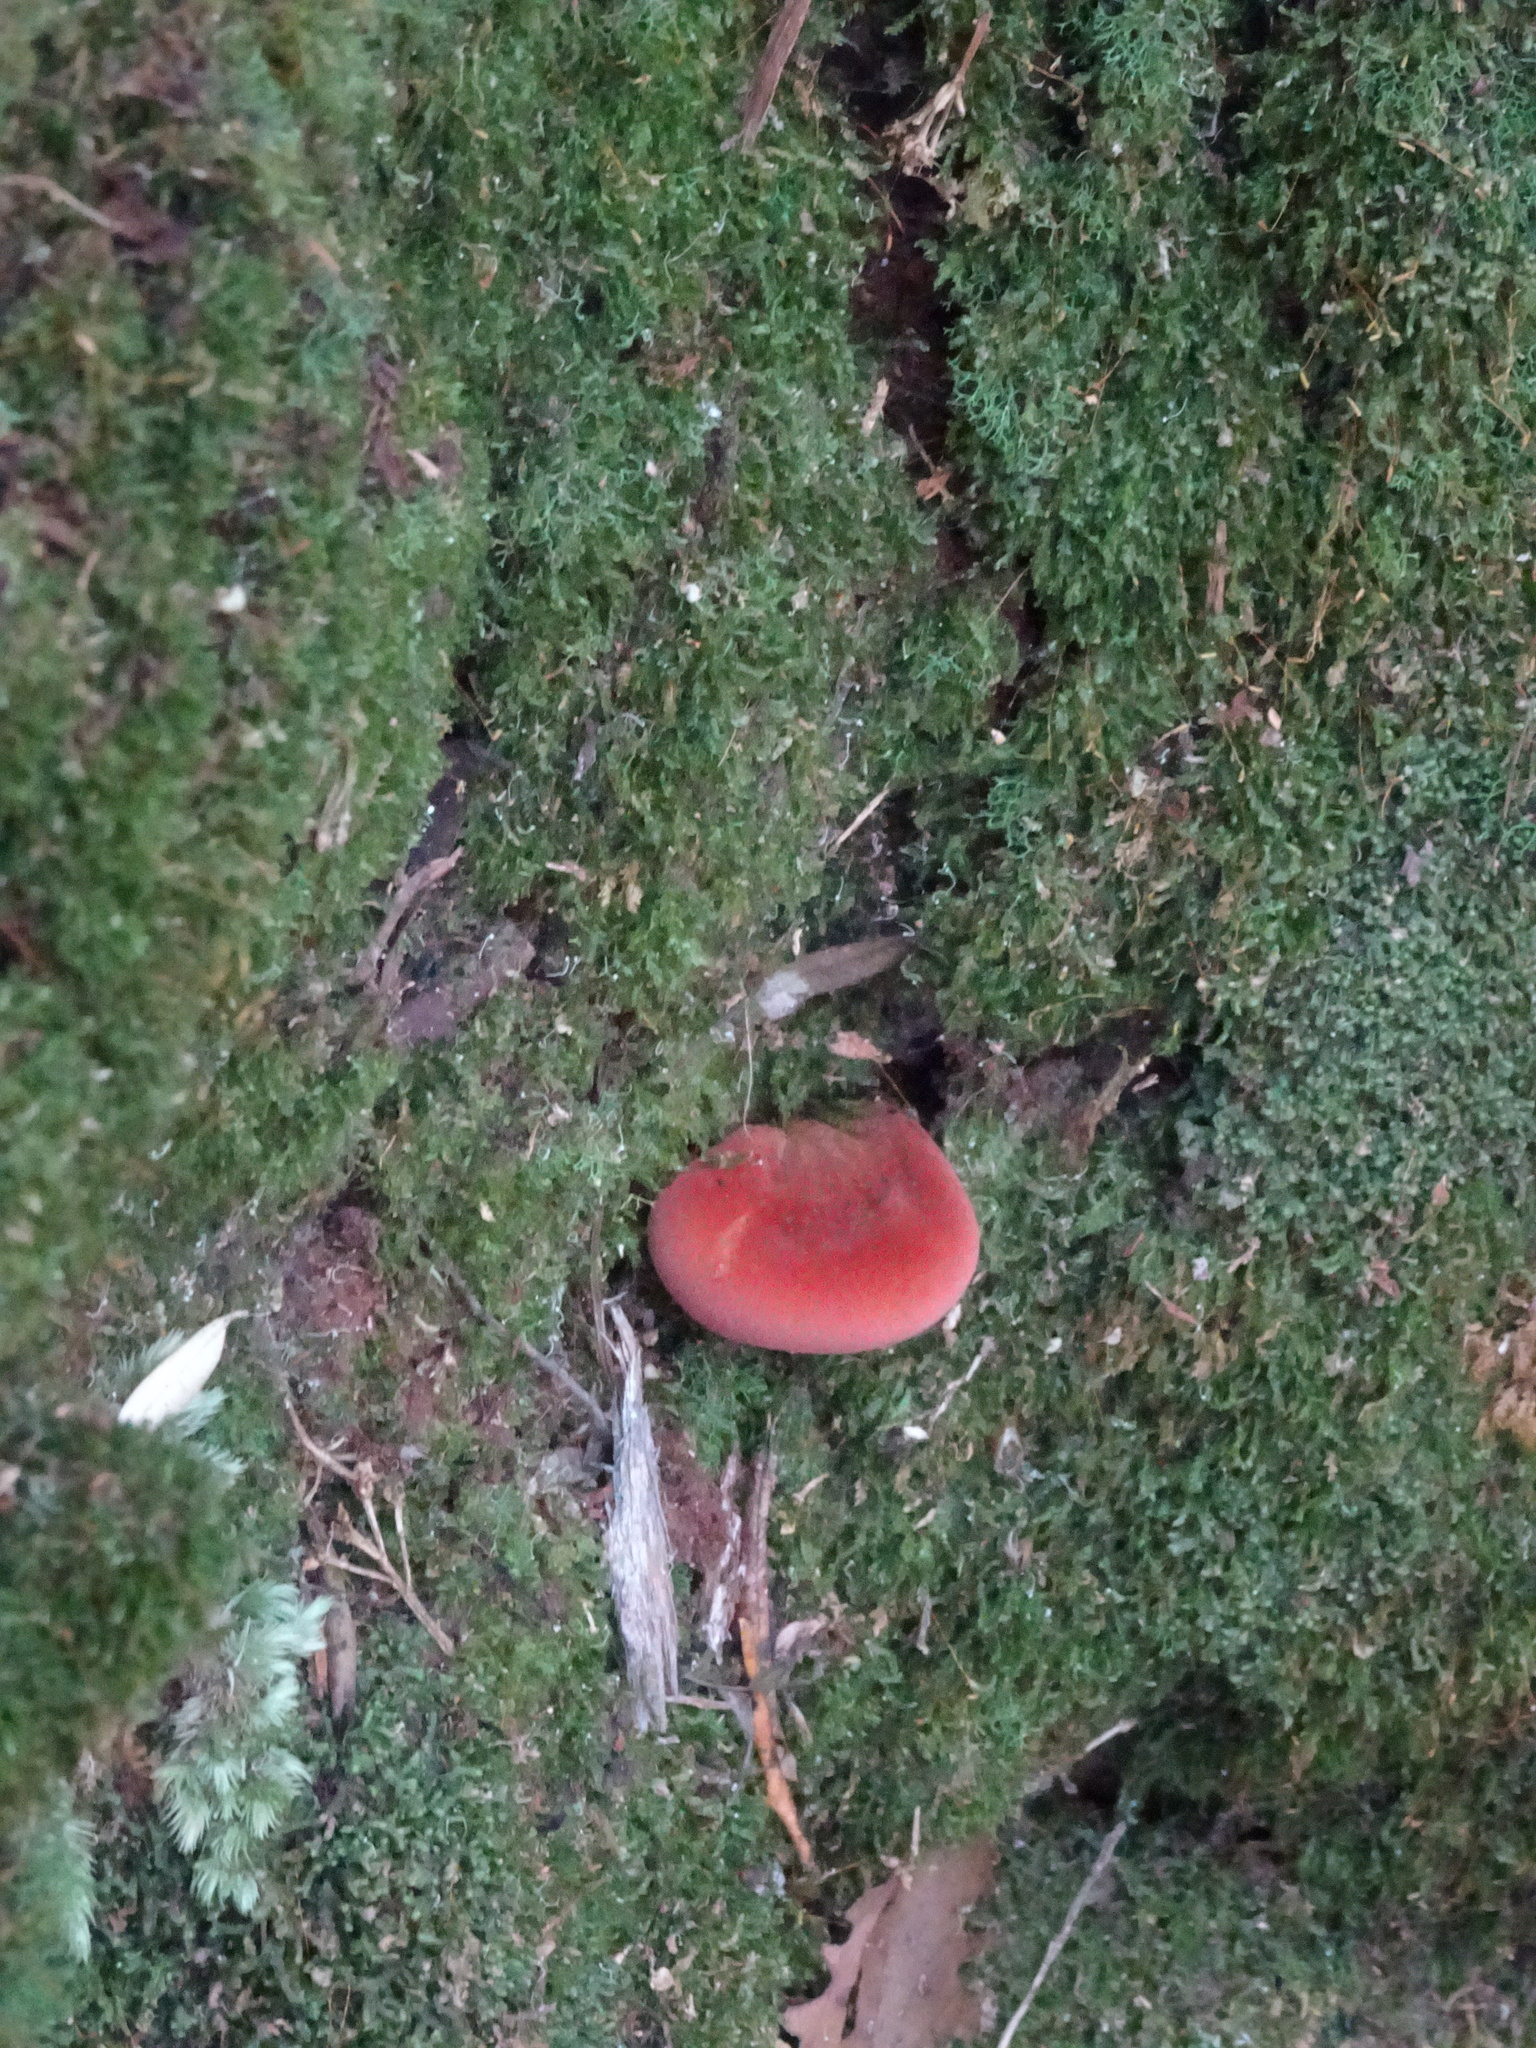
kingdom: Fungi
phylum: Basidiomycota
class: Agaricomycetes
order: Agaricales
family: Fistulinaceae
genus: Fistulina
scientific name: Fistulina spiculifera
